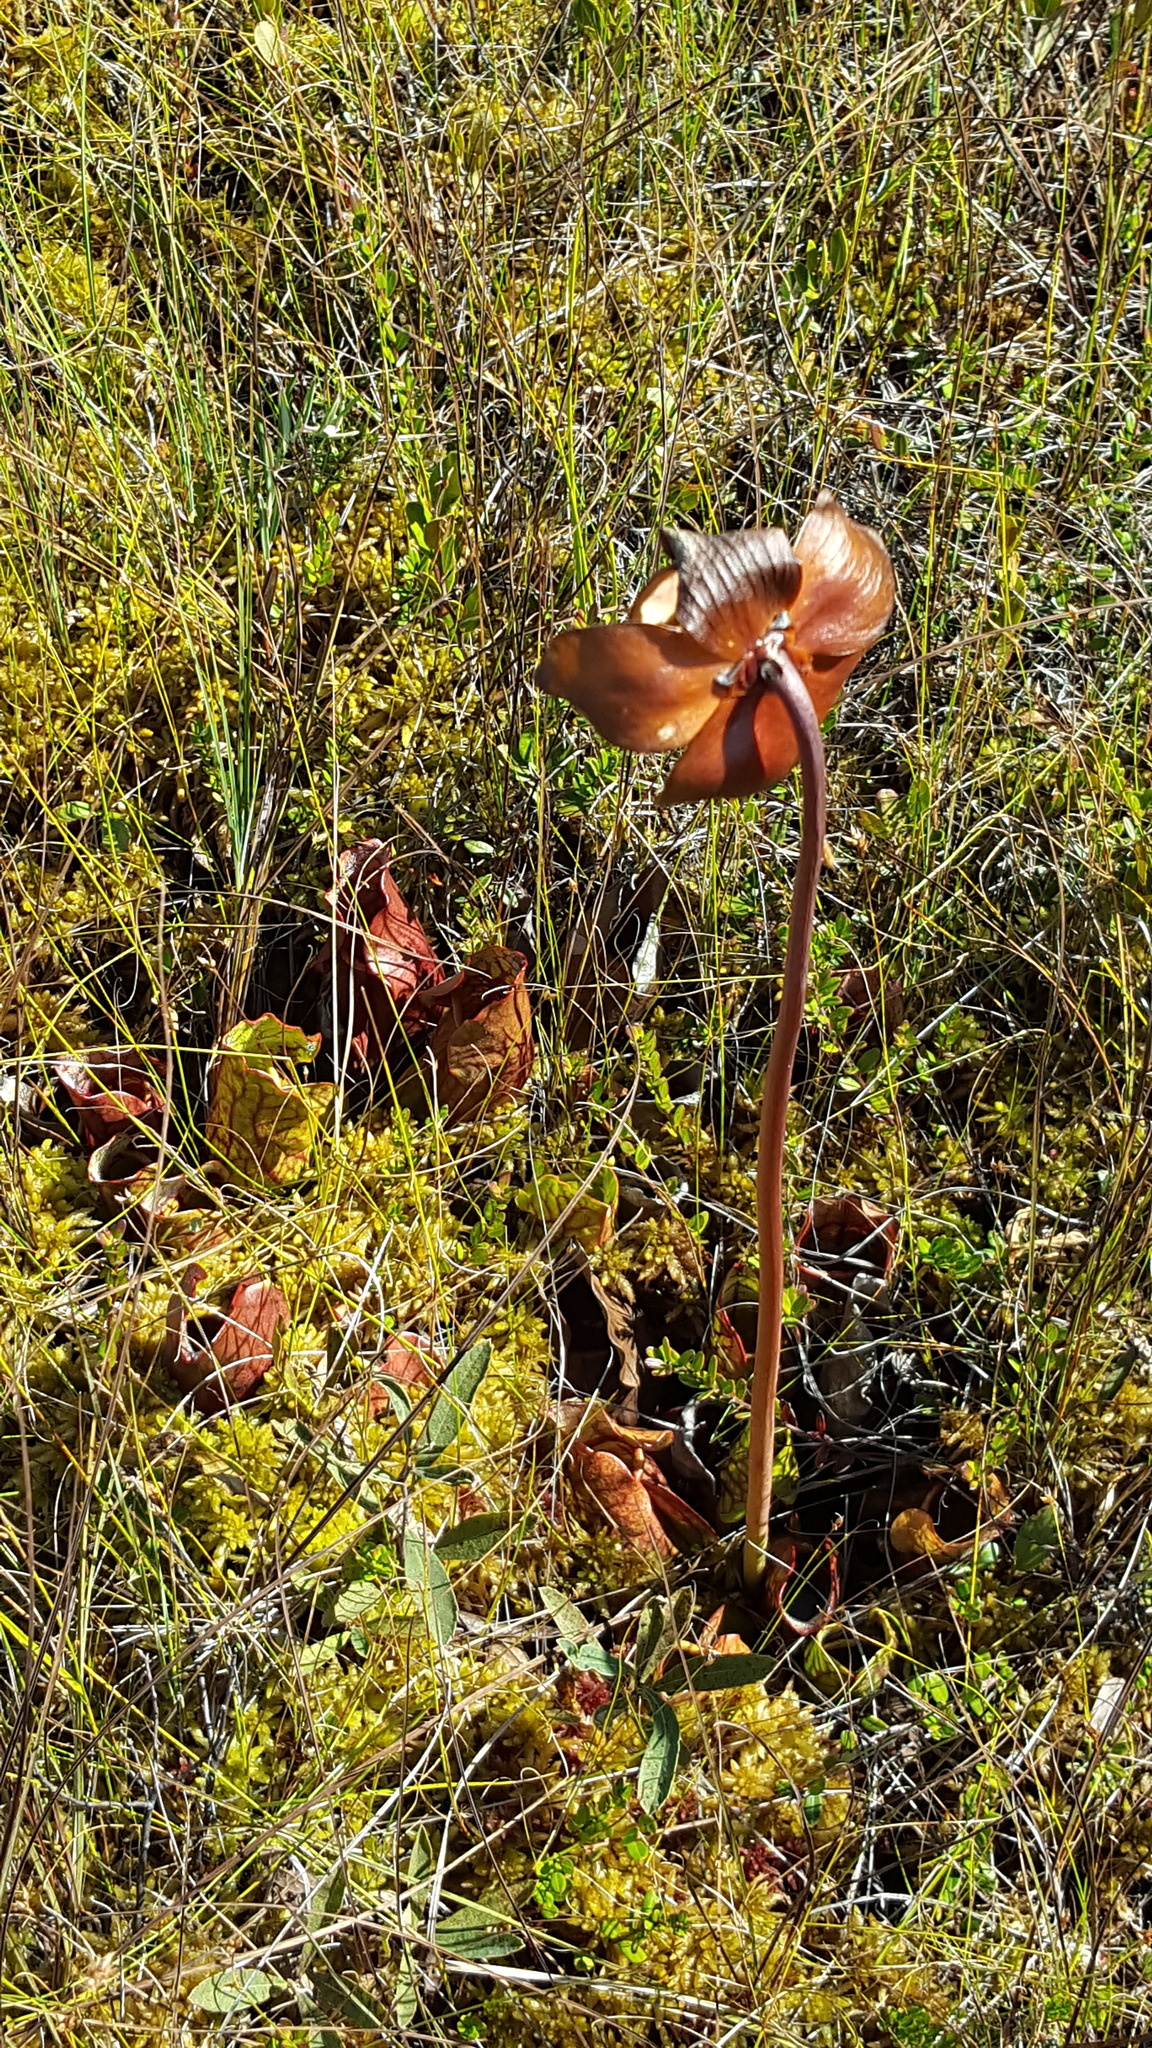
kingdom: Plantae
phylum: Tracheophyta
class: Magnoliopsida
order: Ericales
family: Sarraceniaceae
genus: Sarracenia
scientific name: Sarracenia purpurea
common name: Pitcherplant
